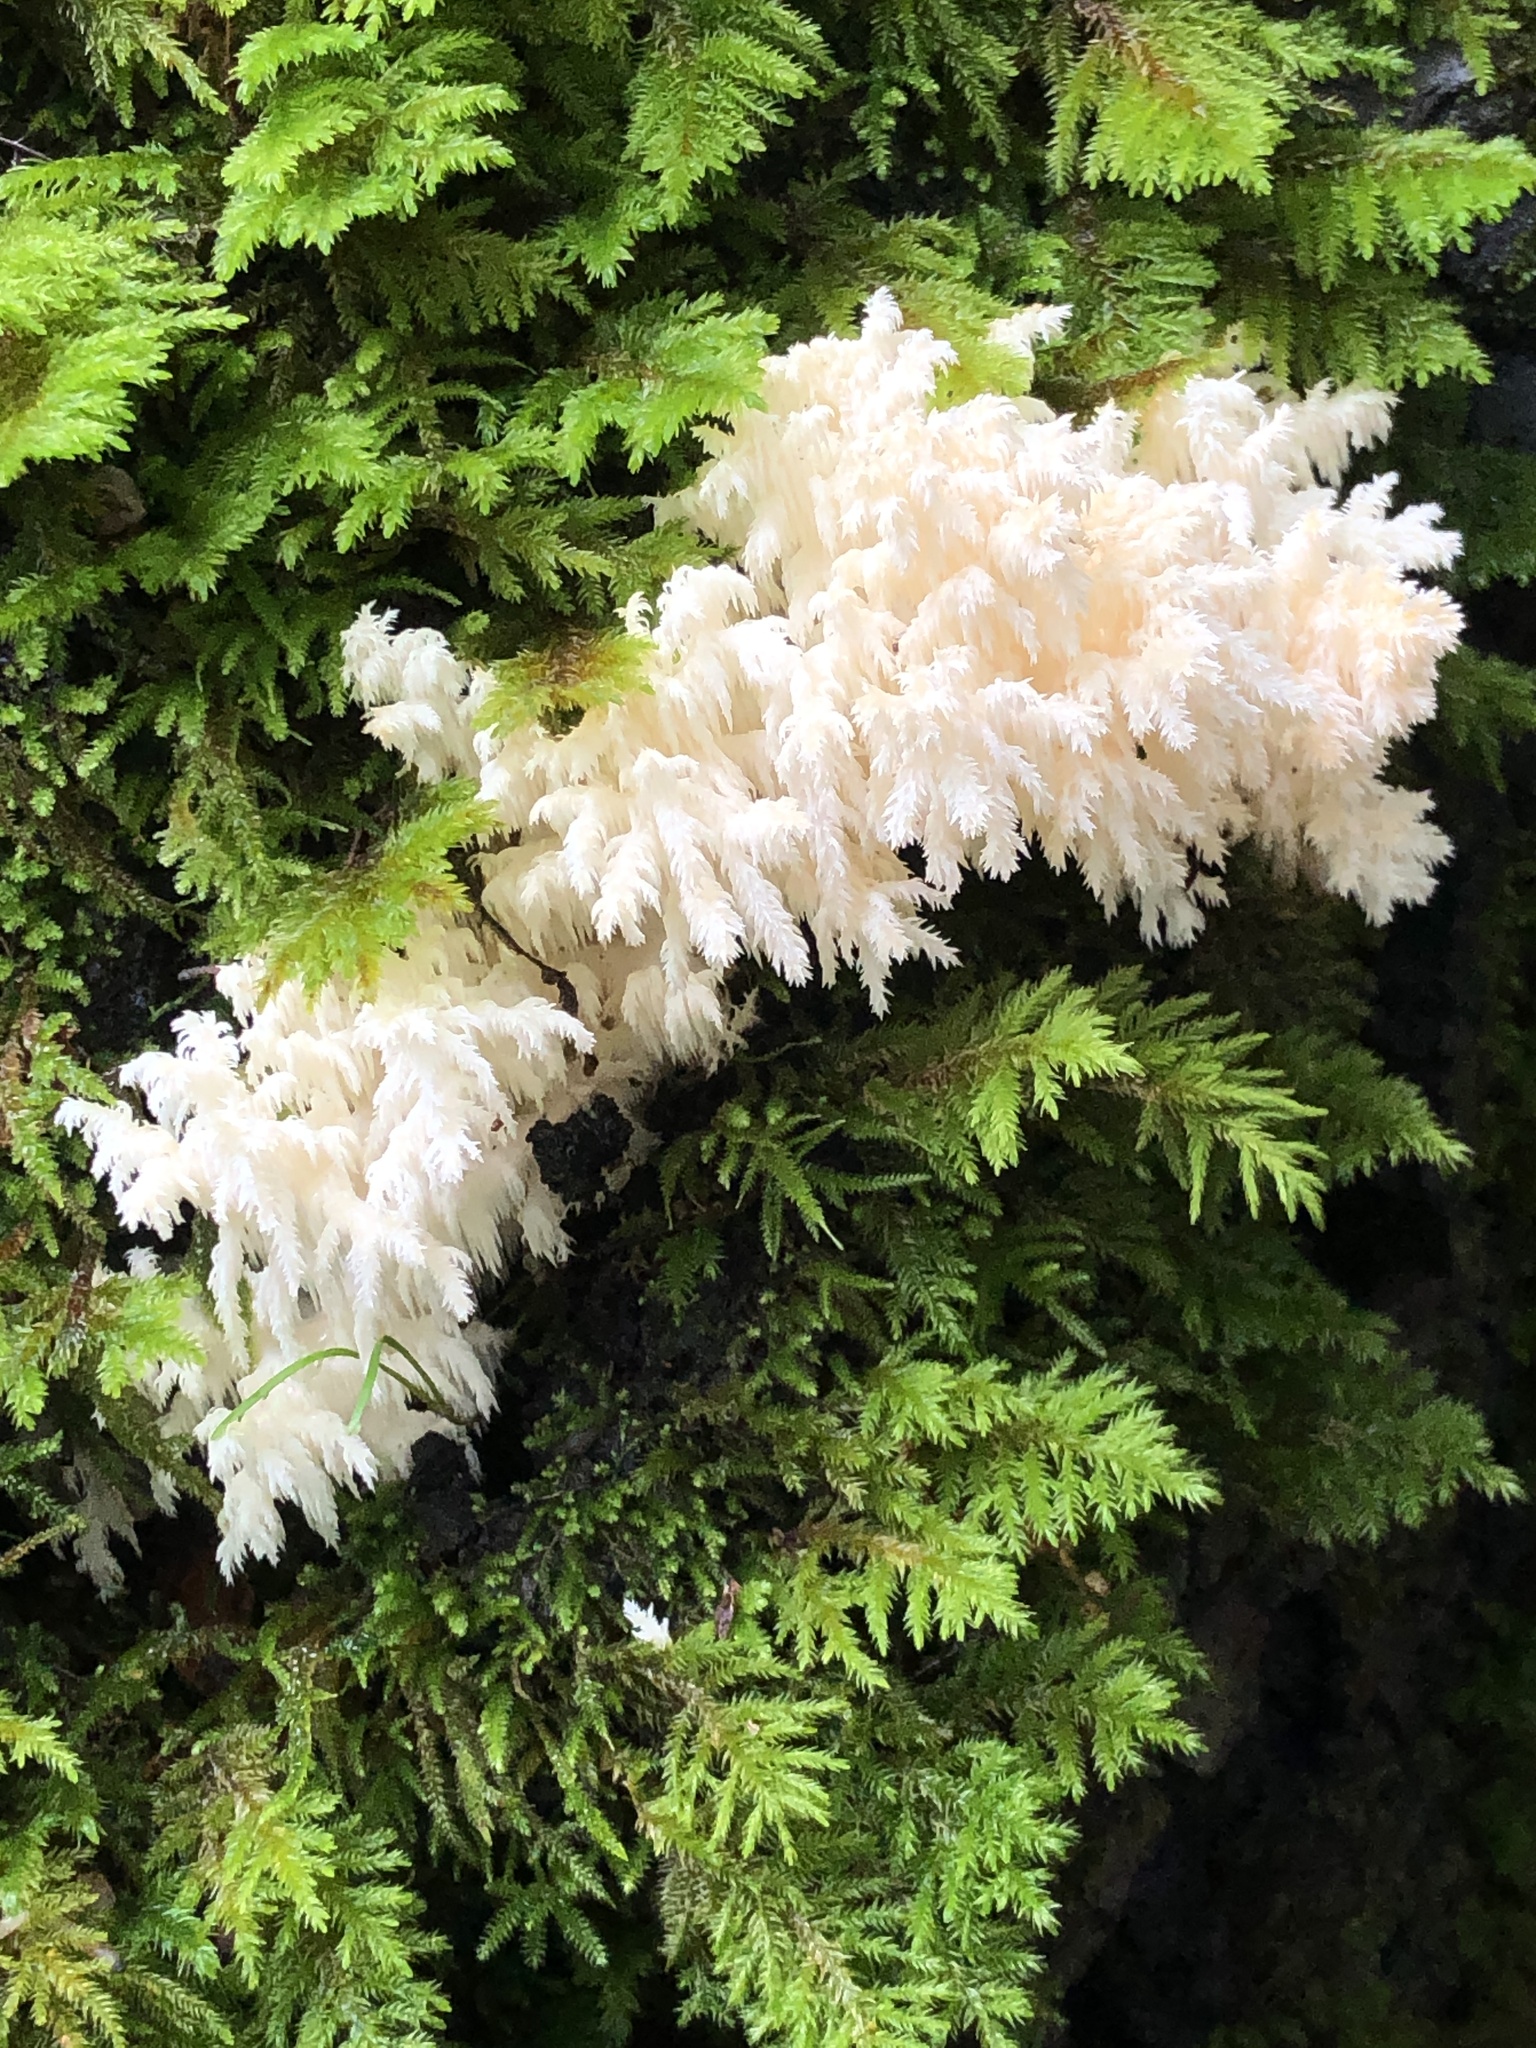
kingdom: Fungi
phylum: Basidiomycota
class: Agaricomycetes
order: Russulales
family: Hericiaceae
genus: Hericium
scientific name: Hericium coralloides
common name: Coral tooth
